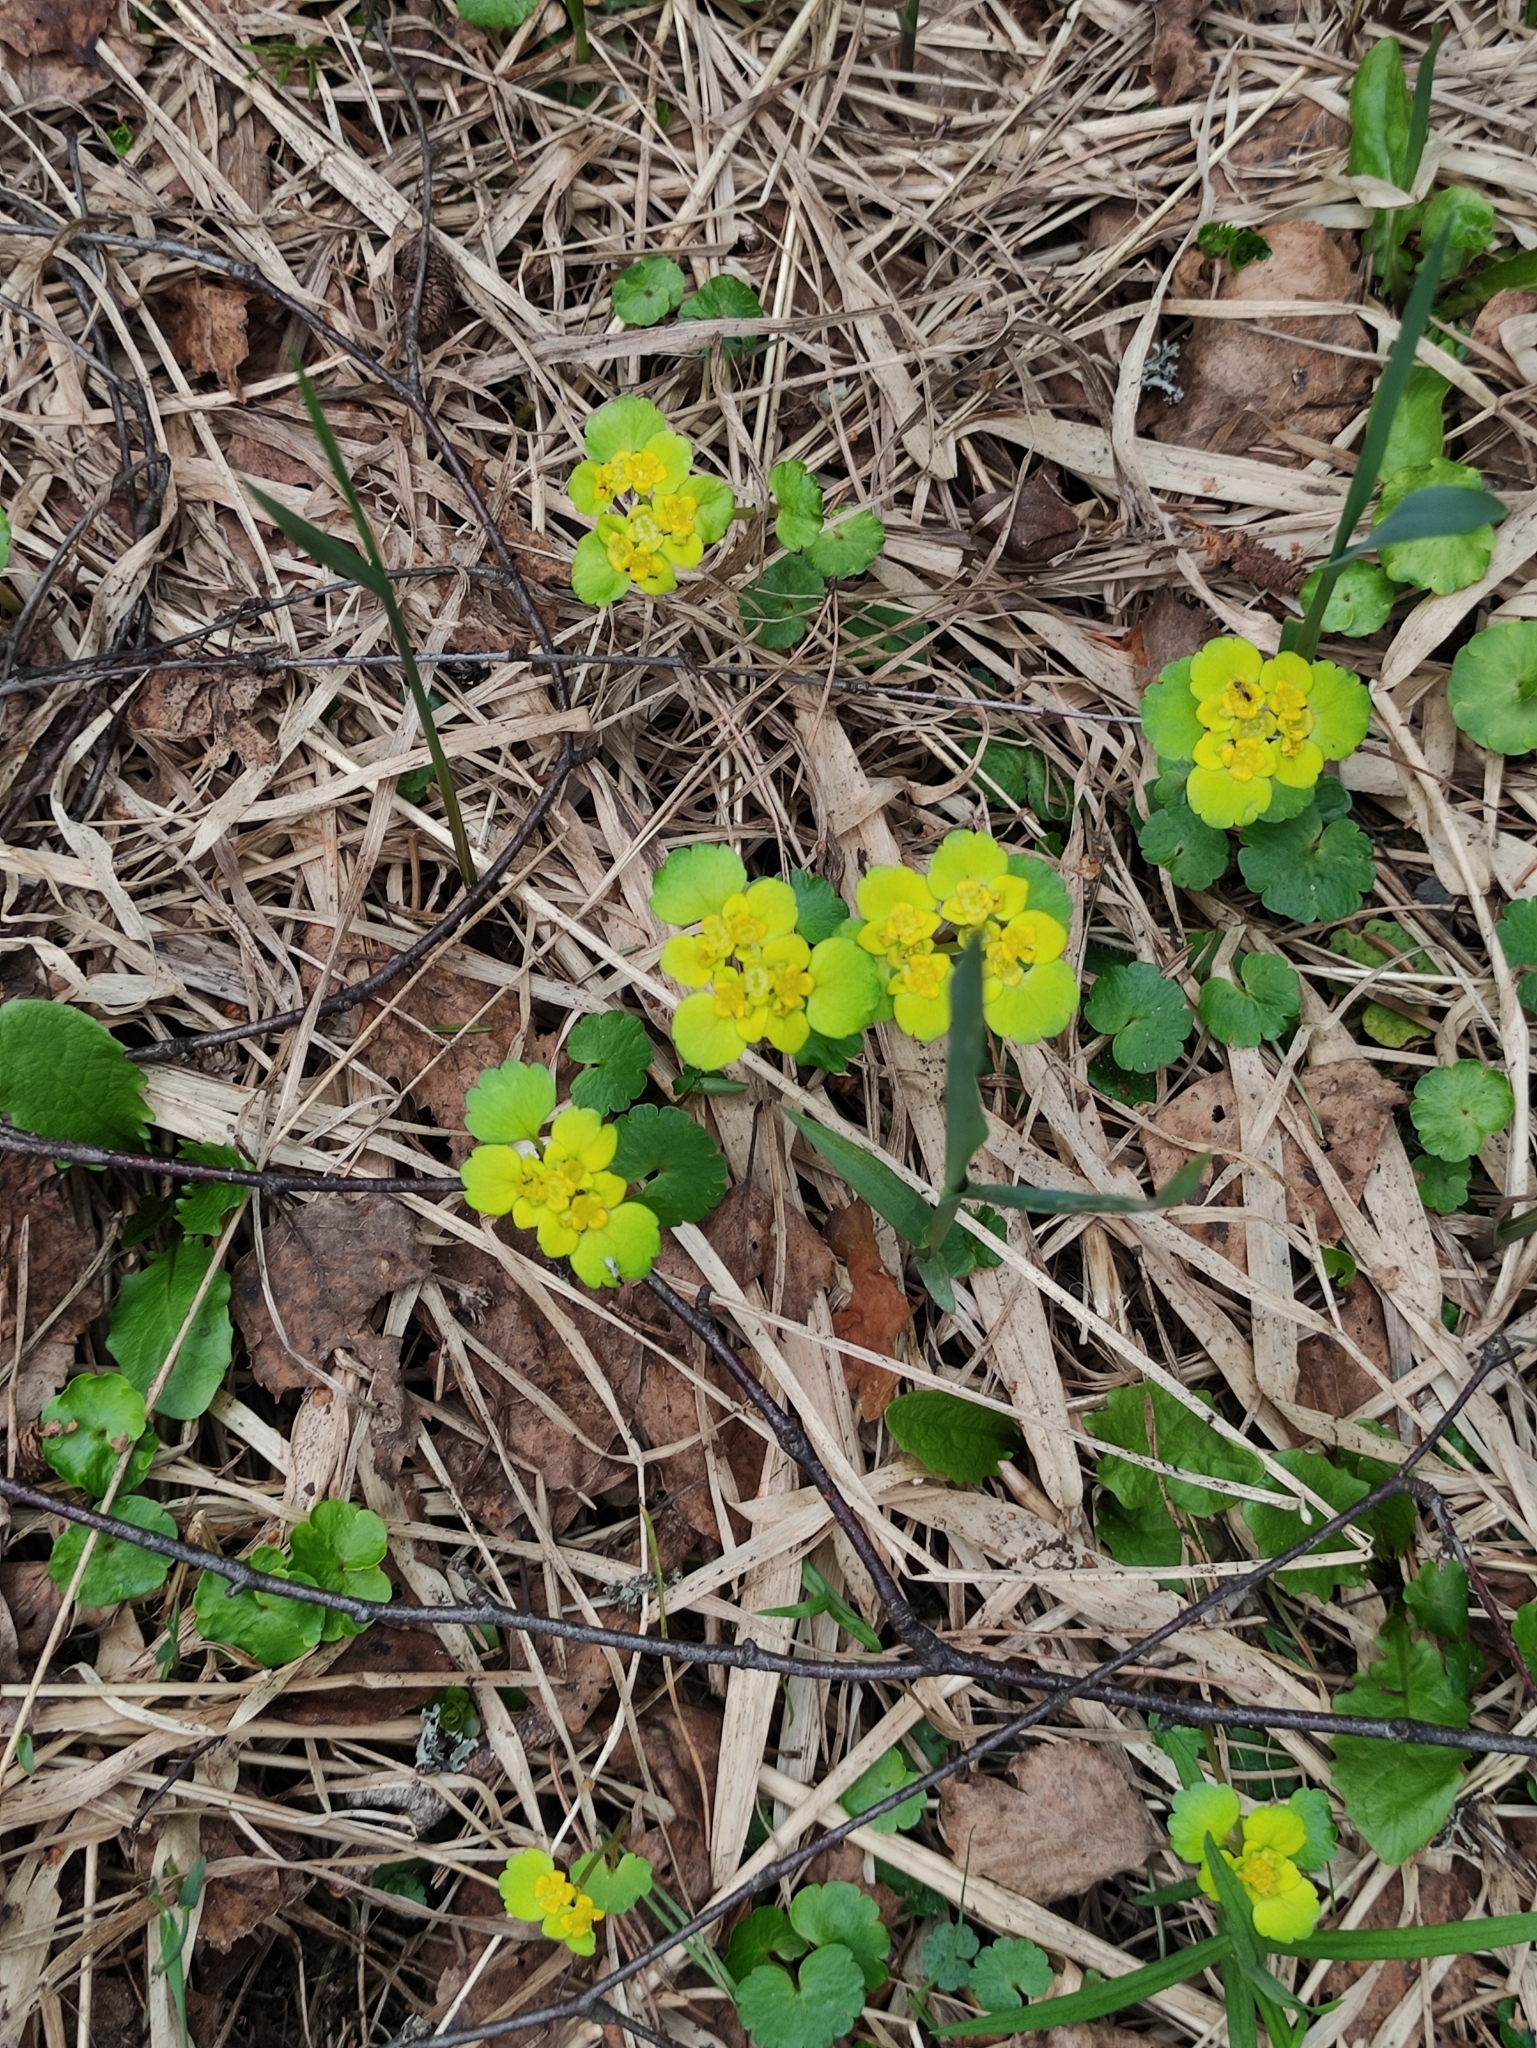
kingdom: Plantae
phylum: Tracheophyta
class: Magnoliopsida
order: Saxifragales
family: Saxifragaceae
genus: Chrysosplenium
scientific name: Chrysosplenium alternifolium
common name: Alternate-leaved golden-saxifrage
